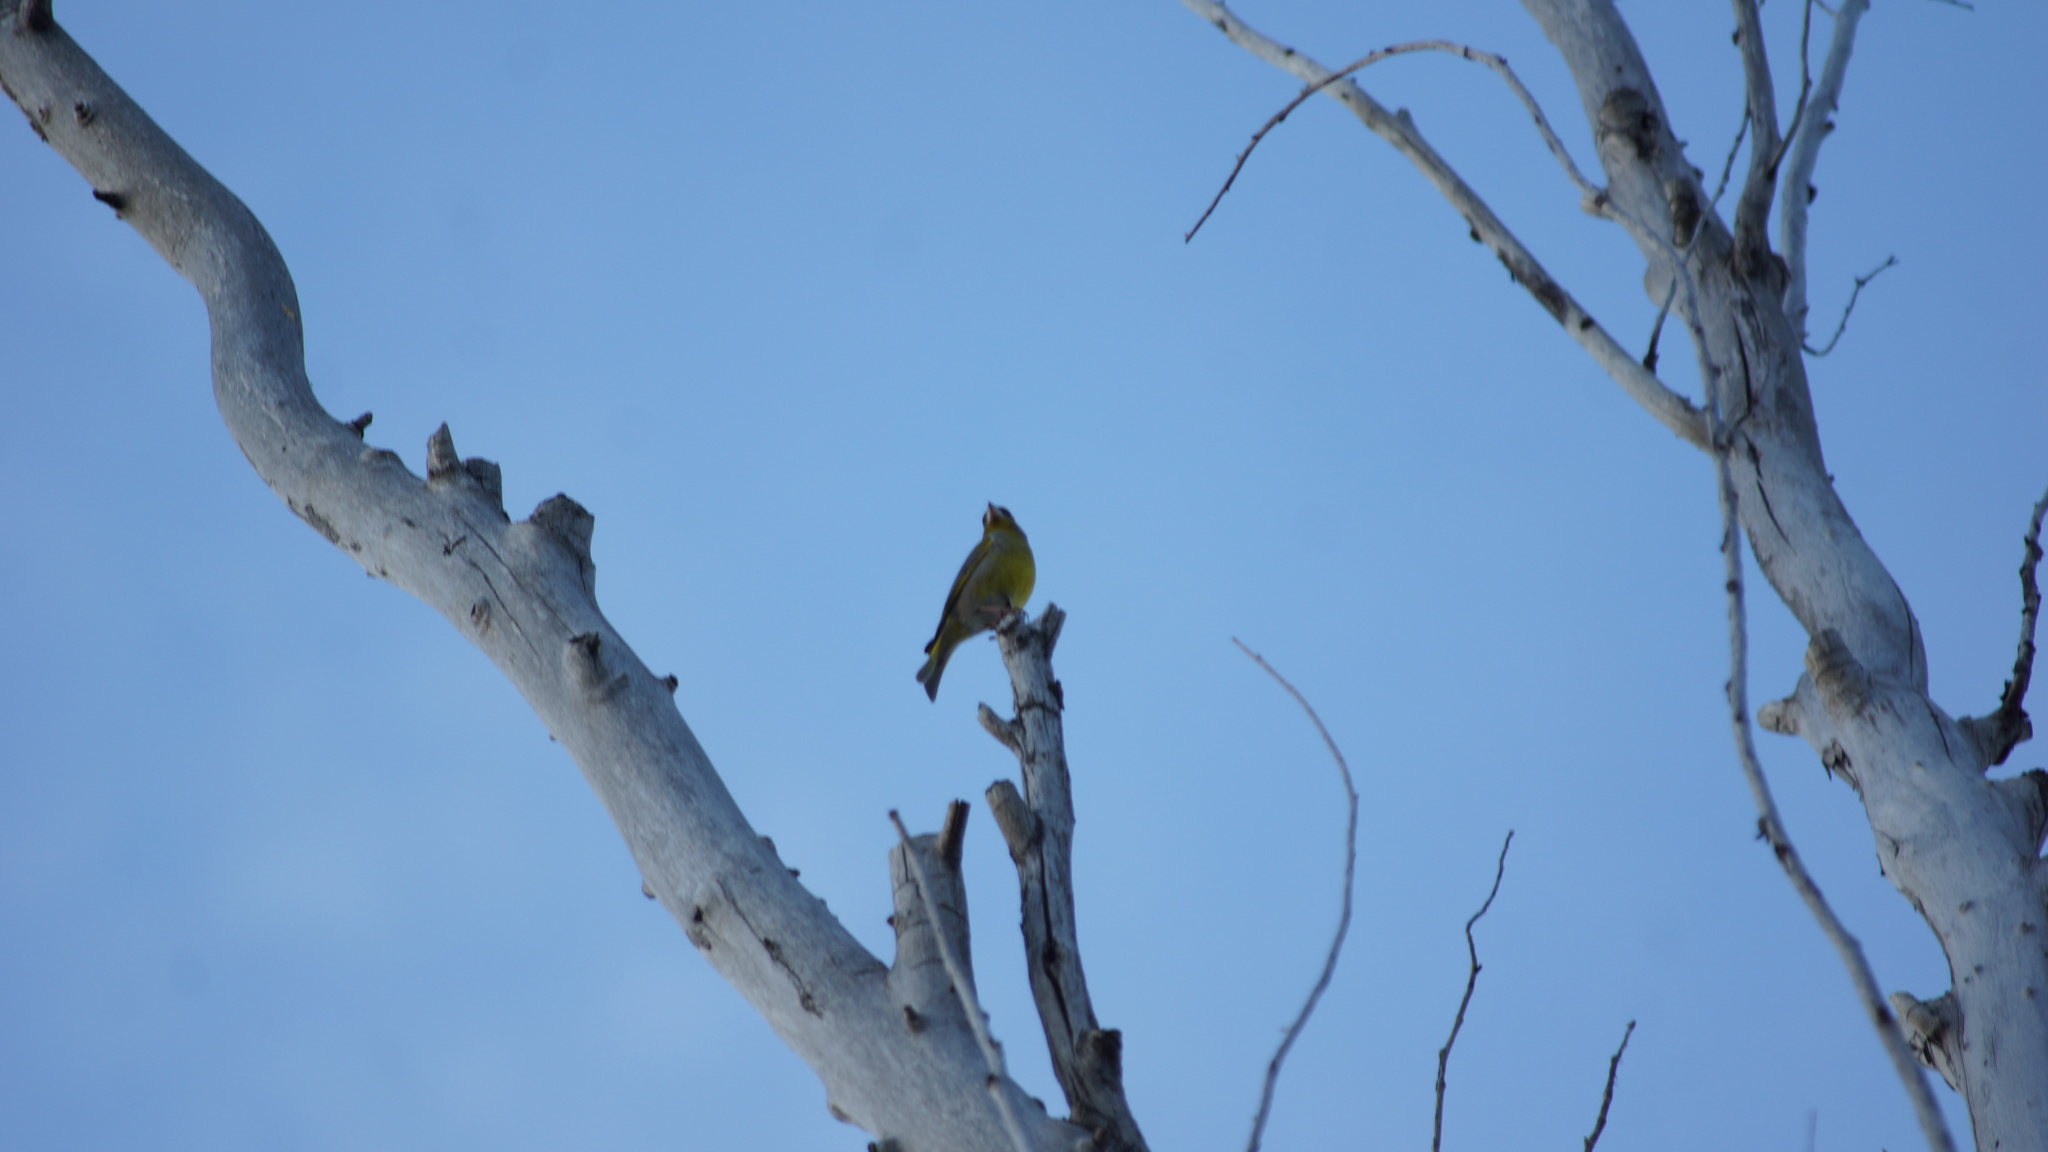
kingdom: Plantae
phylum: Tracheophyta
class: Liliopsida
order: Poales
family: Poaceae
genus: Chloris
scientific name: Chloris chloris
